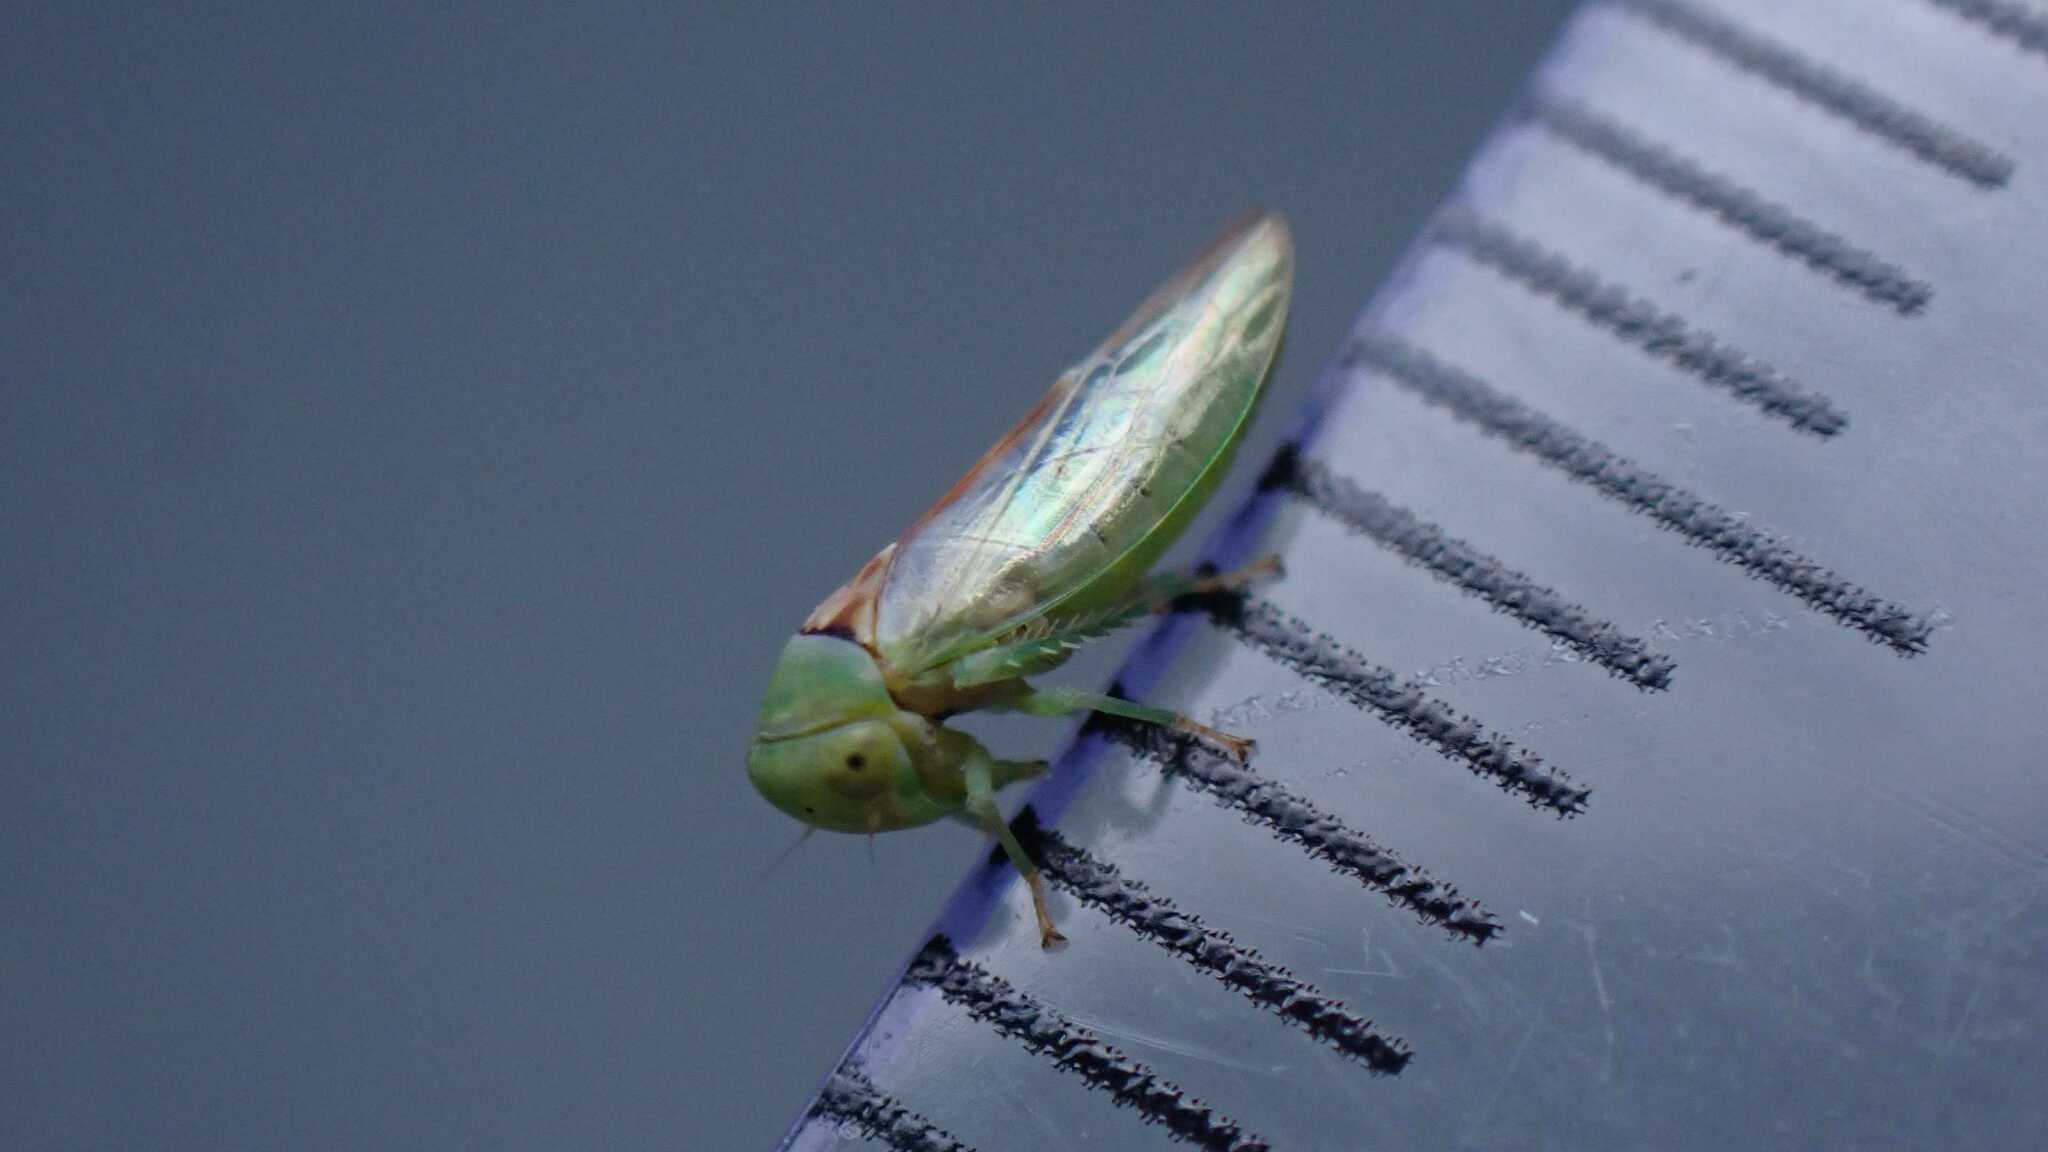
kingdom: Animalia
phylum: Arthropoda
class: Insecta
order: Hemiptera
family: Cicadellidae
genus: Viridicerus
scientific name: Viridicerus ustulatus
